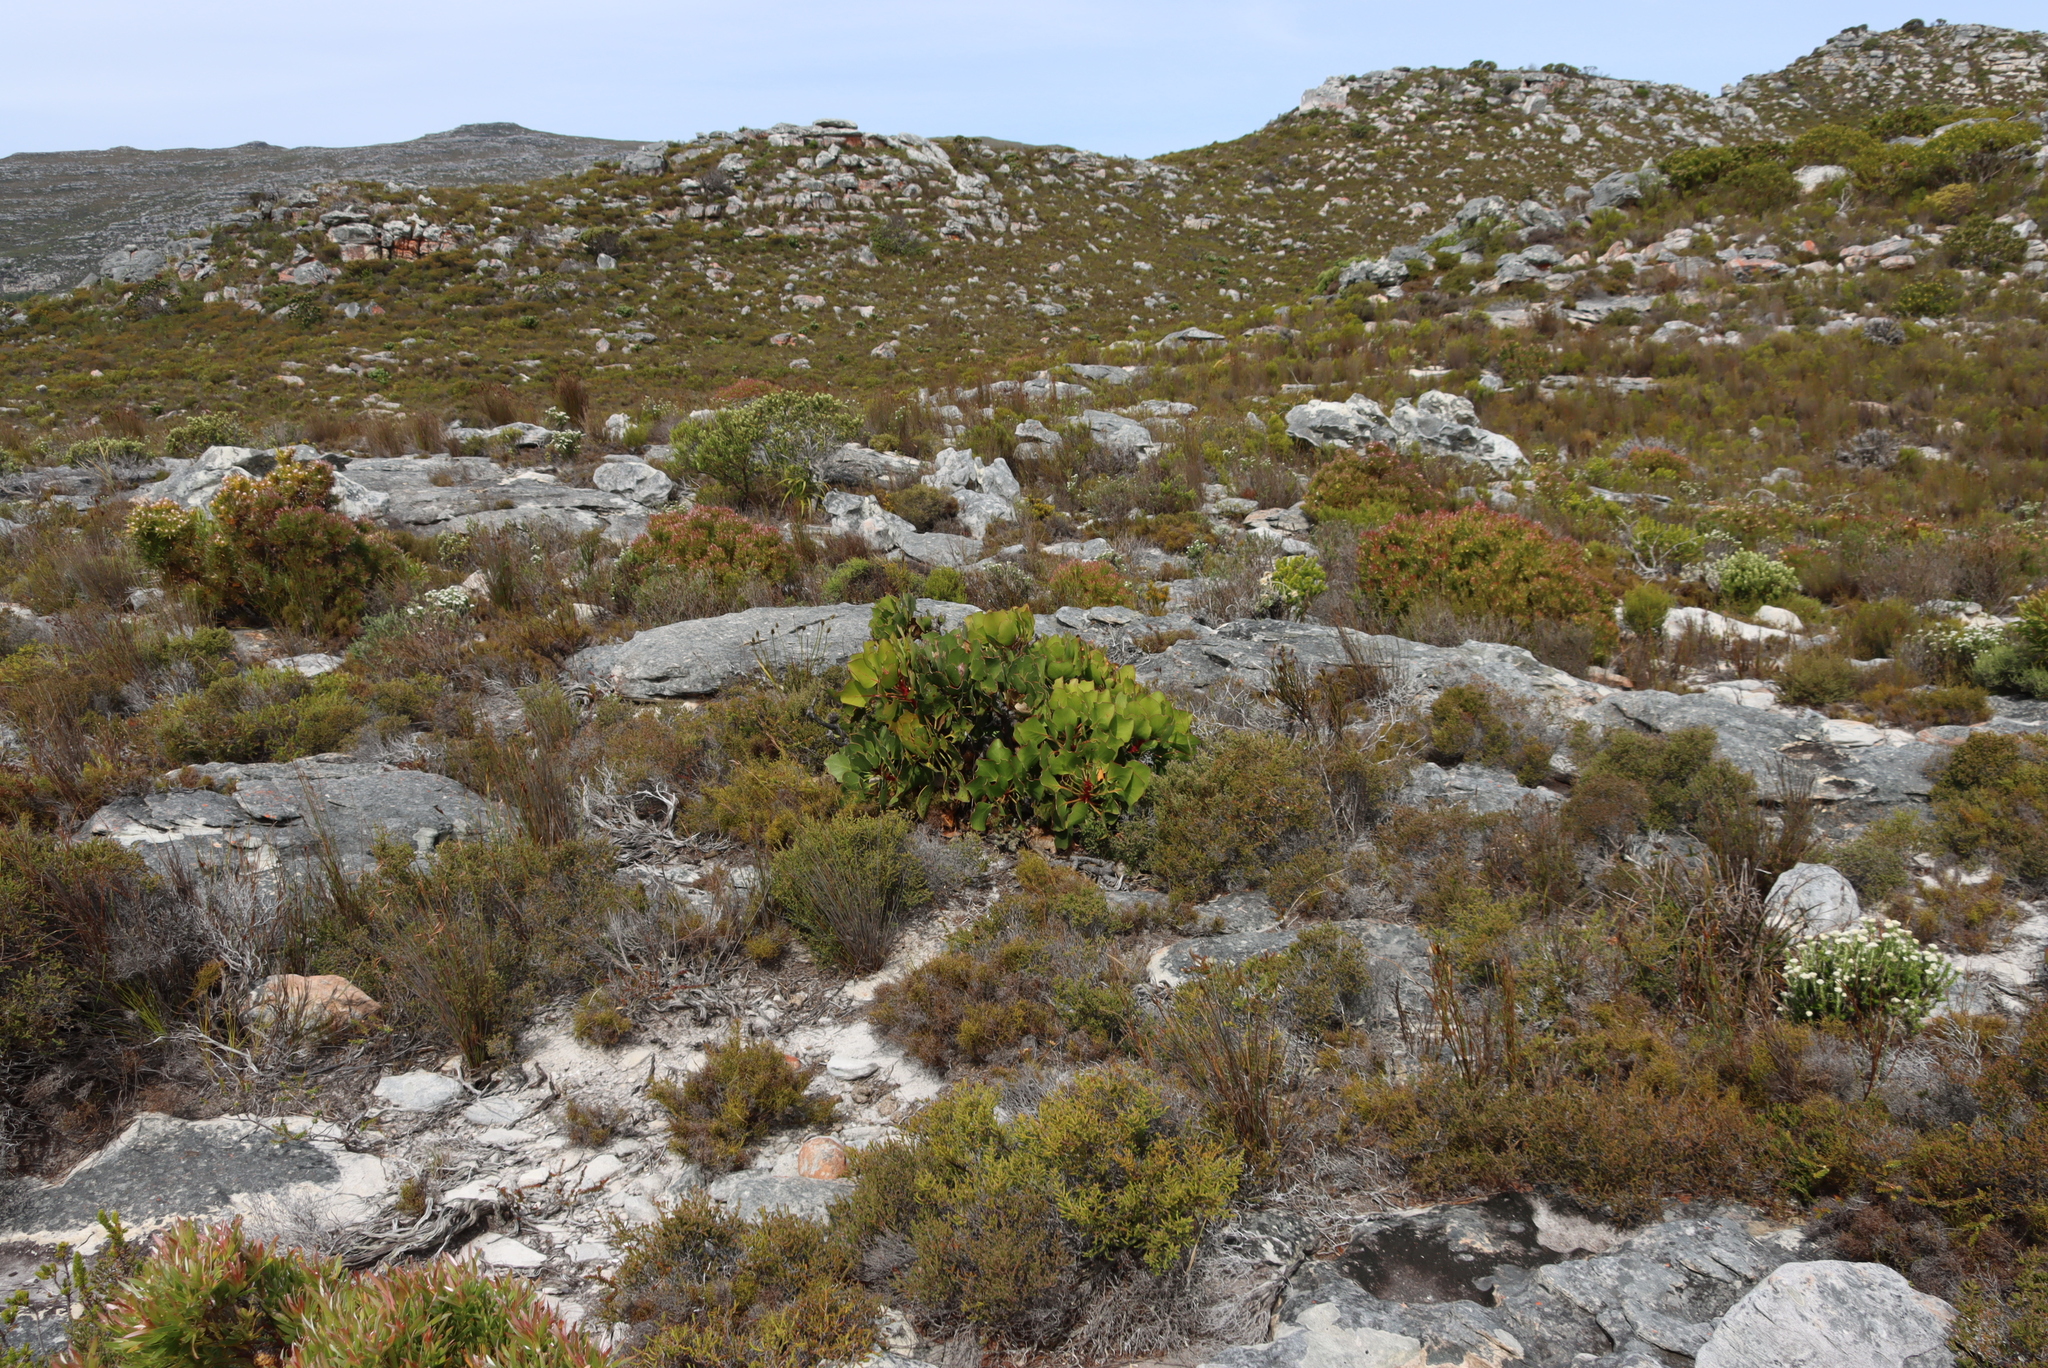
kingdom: Plantae
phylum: Tracheophyta
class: Magnoliopsida
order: Proteales
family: Proteaceae
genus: Protea
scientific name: Protea cynaroides
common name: King protea
